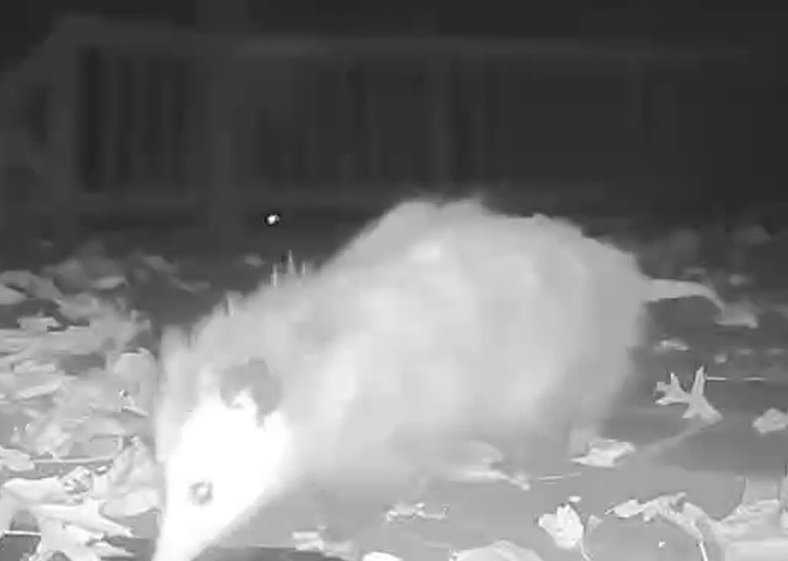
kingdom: Animalia
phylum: Chordata
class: Mammalia
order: Didelphimorphia
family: Didelphidae
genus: Didelphis
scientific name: Didelphis virginiana
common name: Virginia opossum
